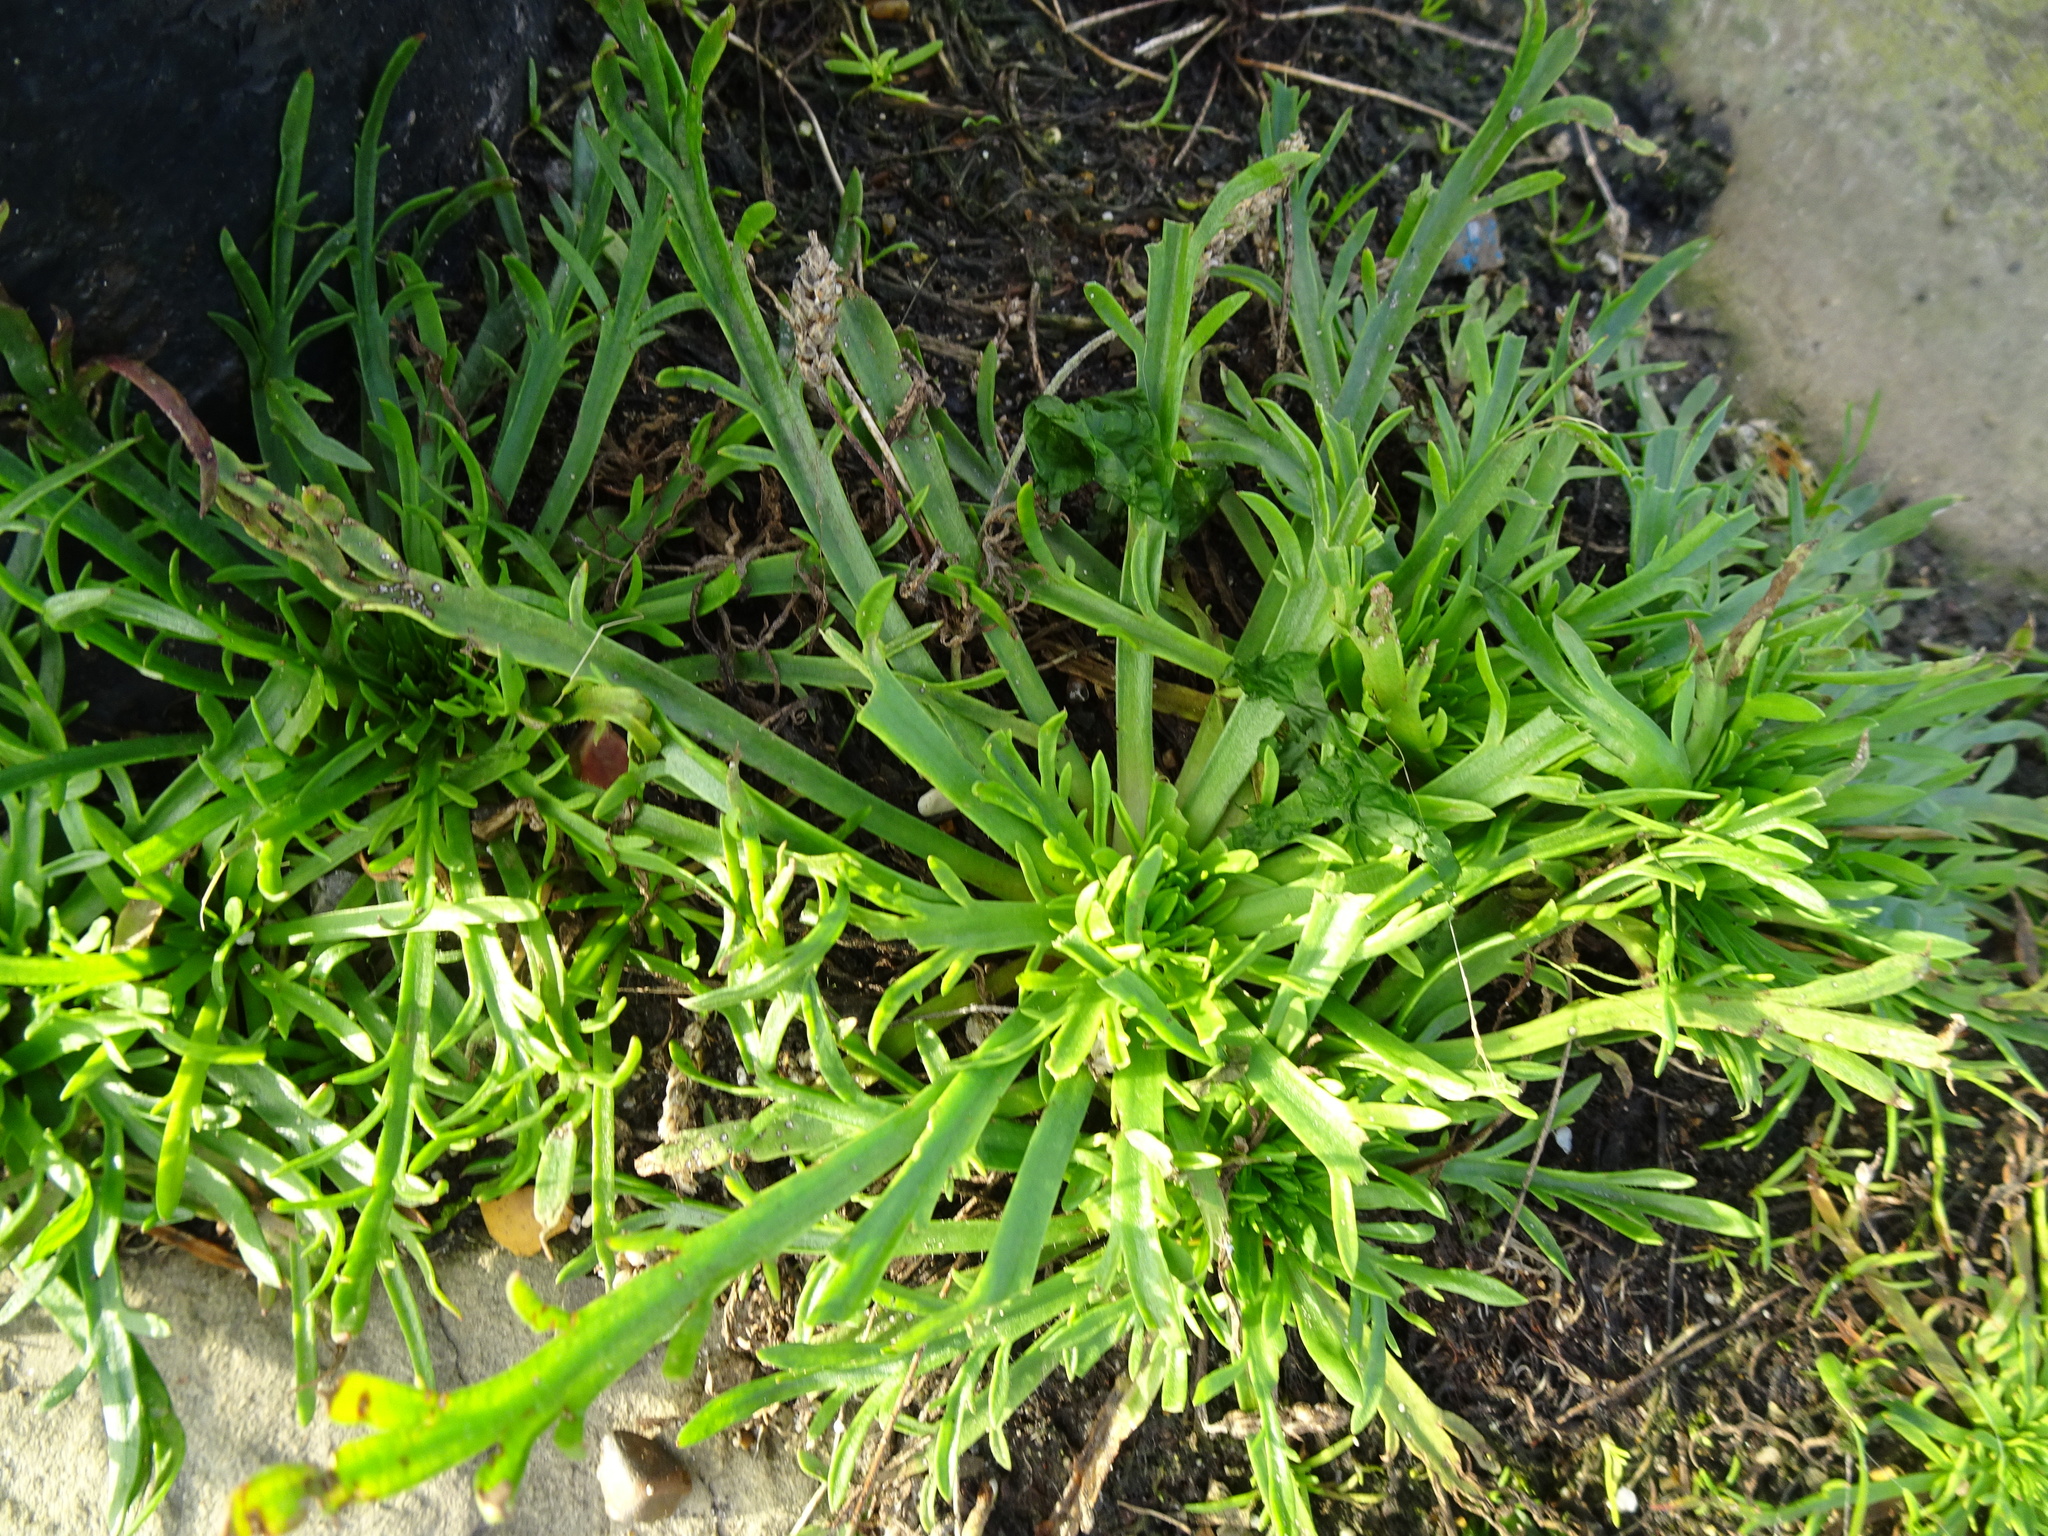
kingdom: Plantae
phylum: Tracheophyta
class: Magnoliopsida
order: Lamiales
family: Plantaginaceae
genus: Plantago
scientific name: Plantago coronopus
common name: Buck's-horn plantain
